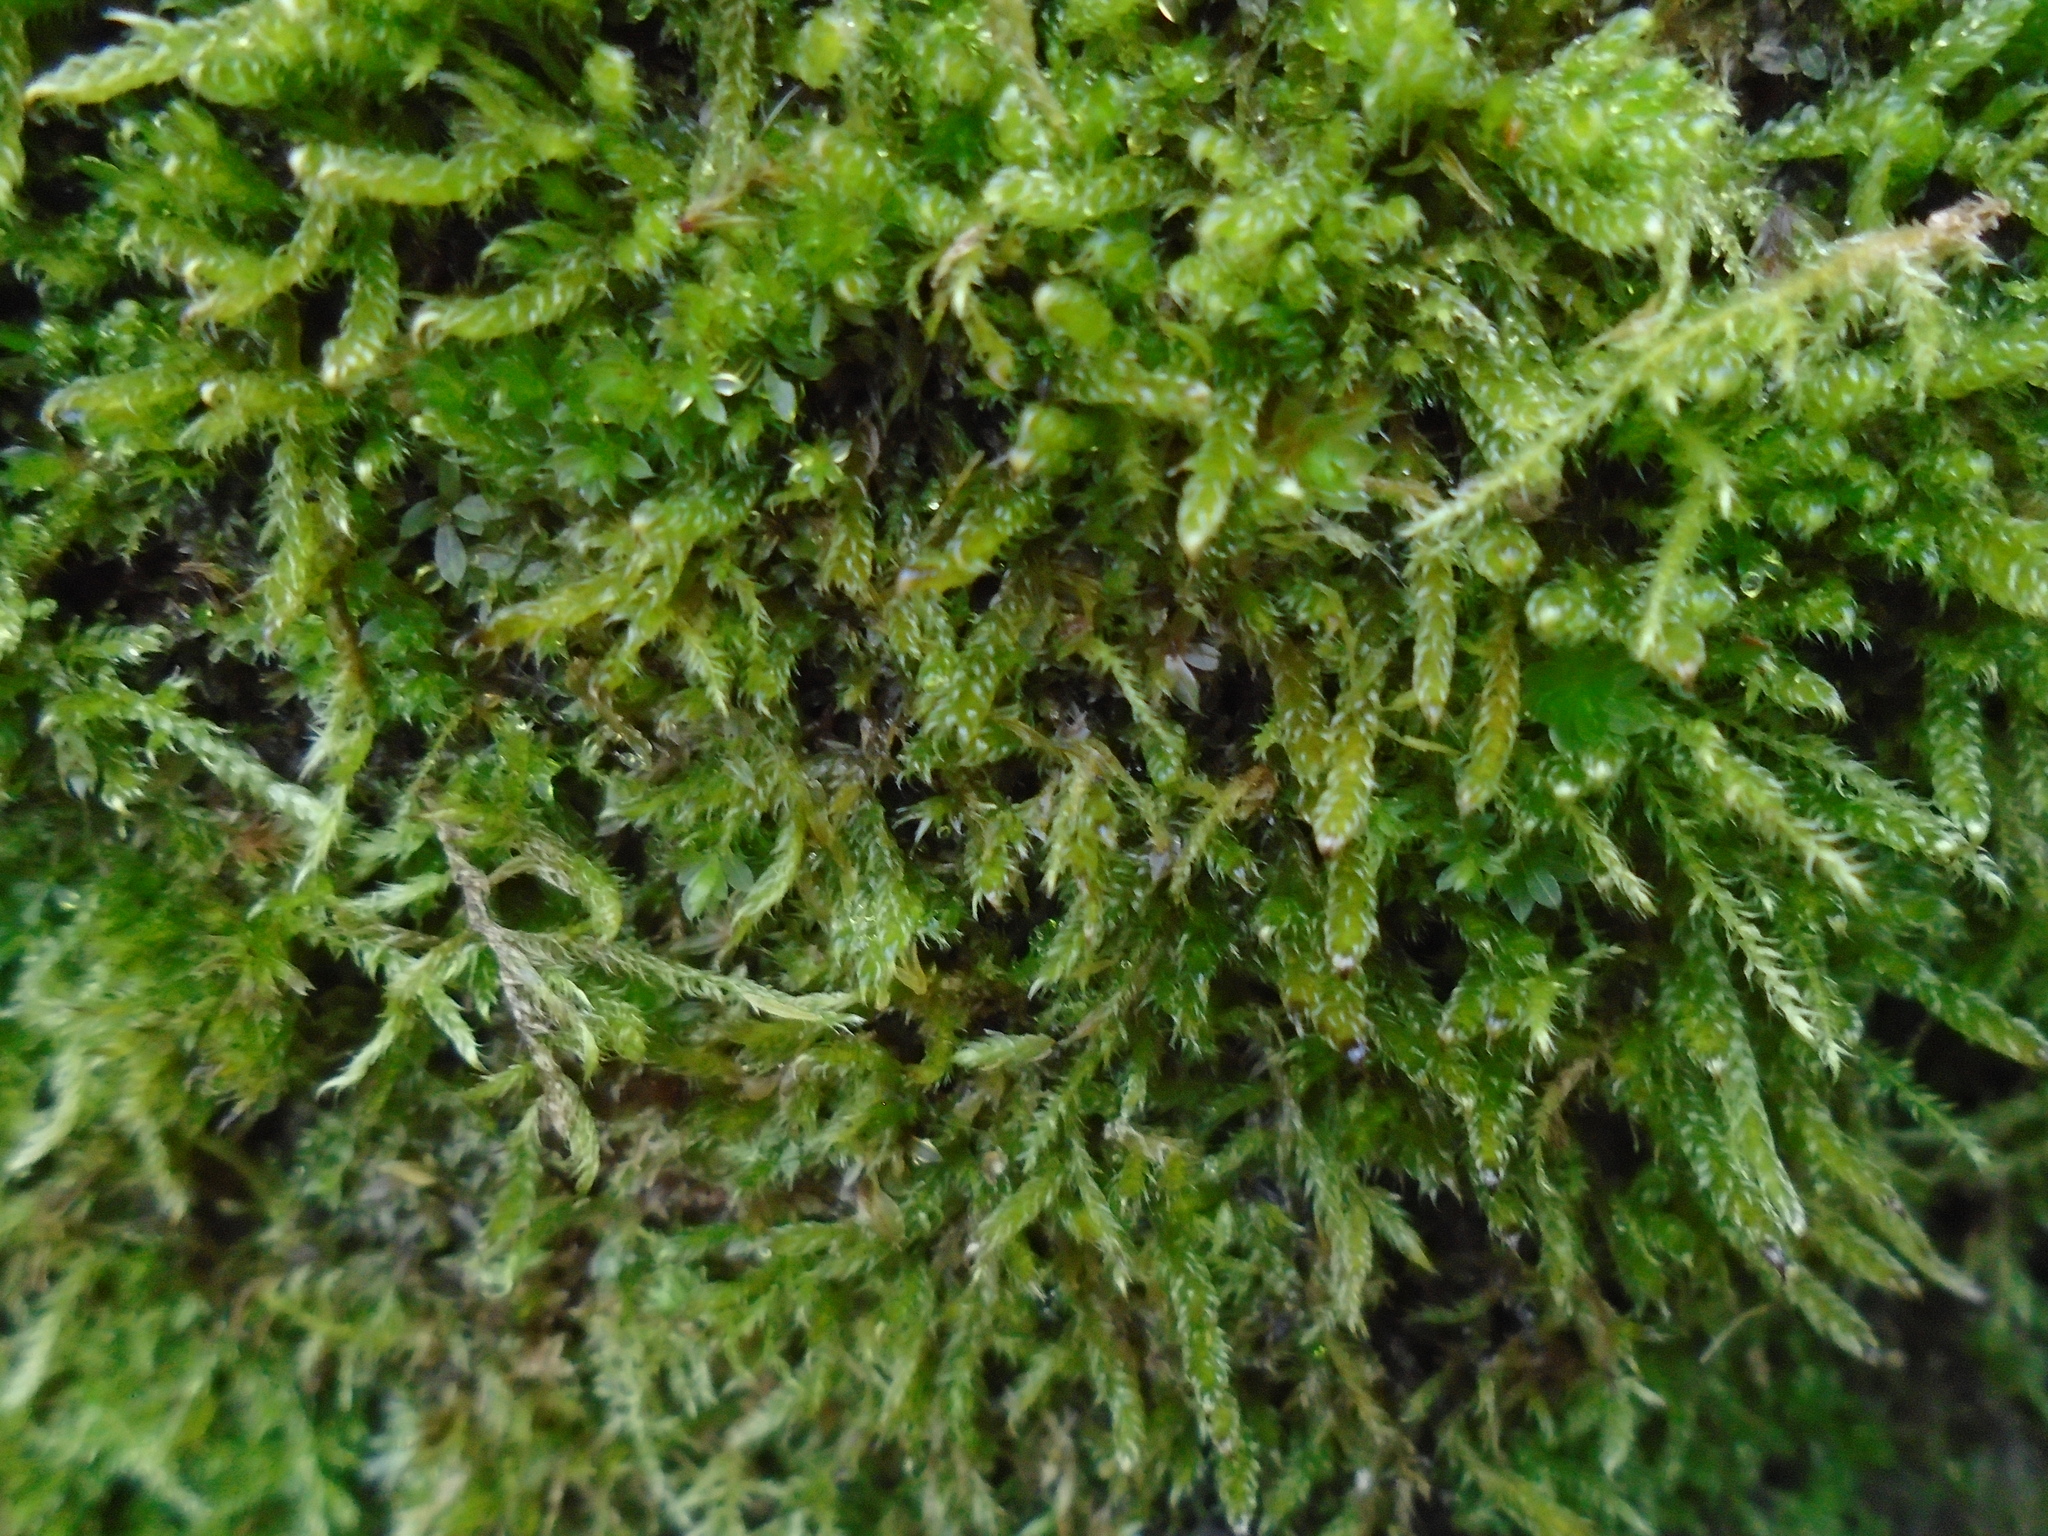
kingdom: Plantae
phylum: Bryophyta
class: Bryopsida
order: Hypnales
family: Hypnaceae
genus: Hypnum
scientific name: Hypnum cupressiforme
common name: Cypress-leaved plait-moss
